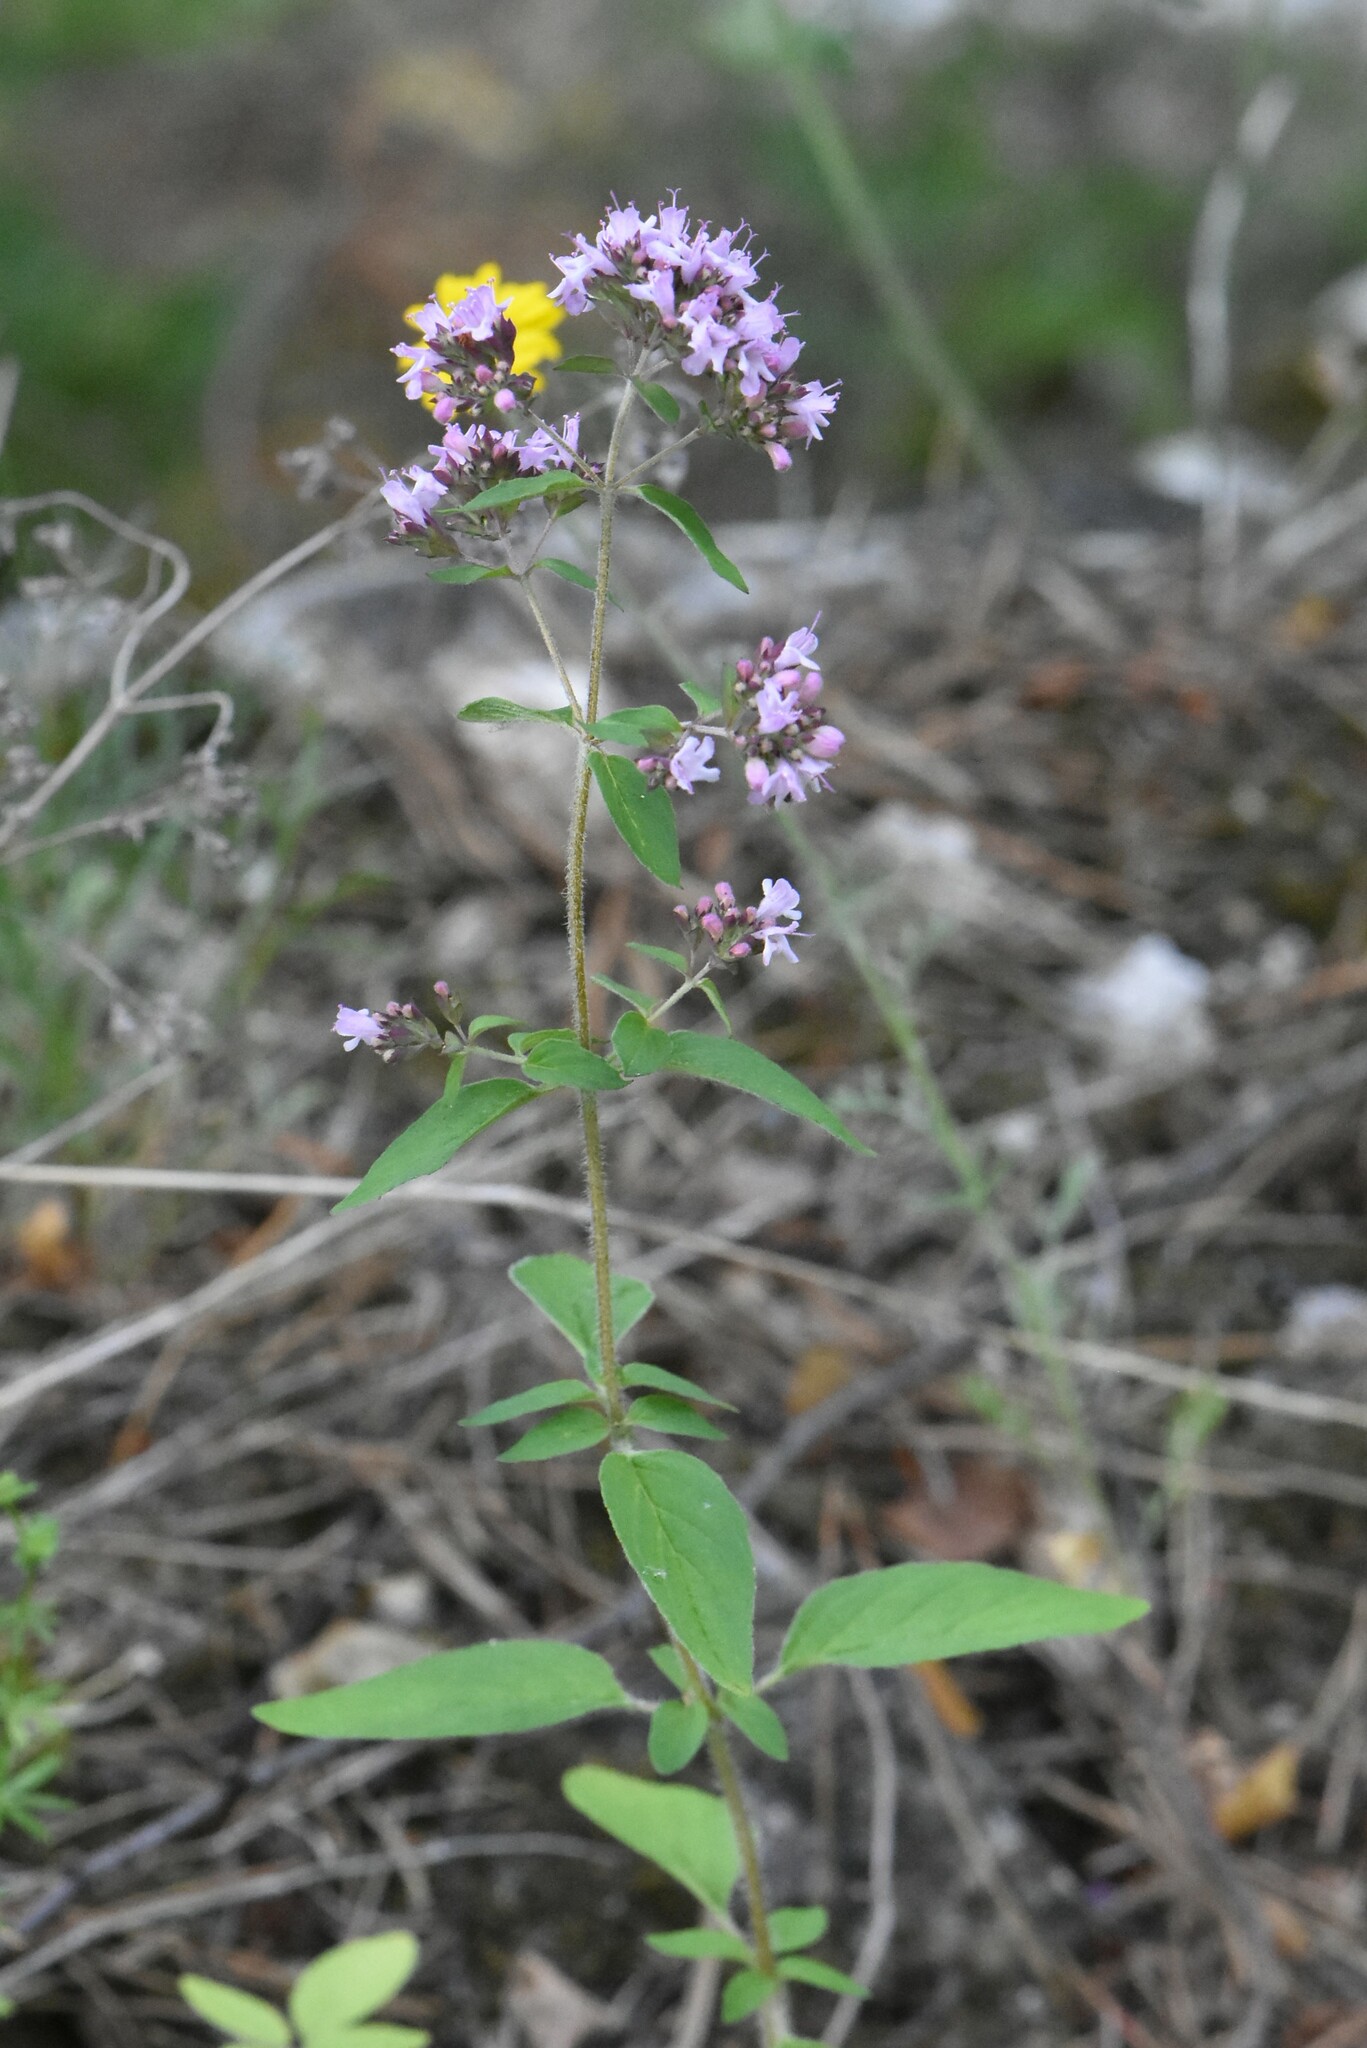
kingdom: Plantae
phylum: Tracheophyta
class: Magnoliopsida
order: Lamiales
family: Lamiaceae
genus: Origanum
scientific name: Origanum vulgare
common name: Wild marjoram
